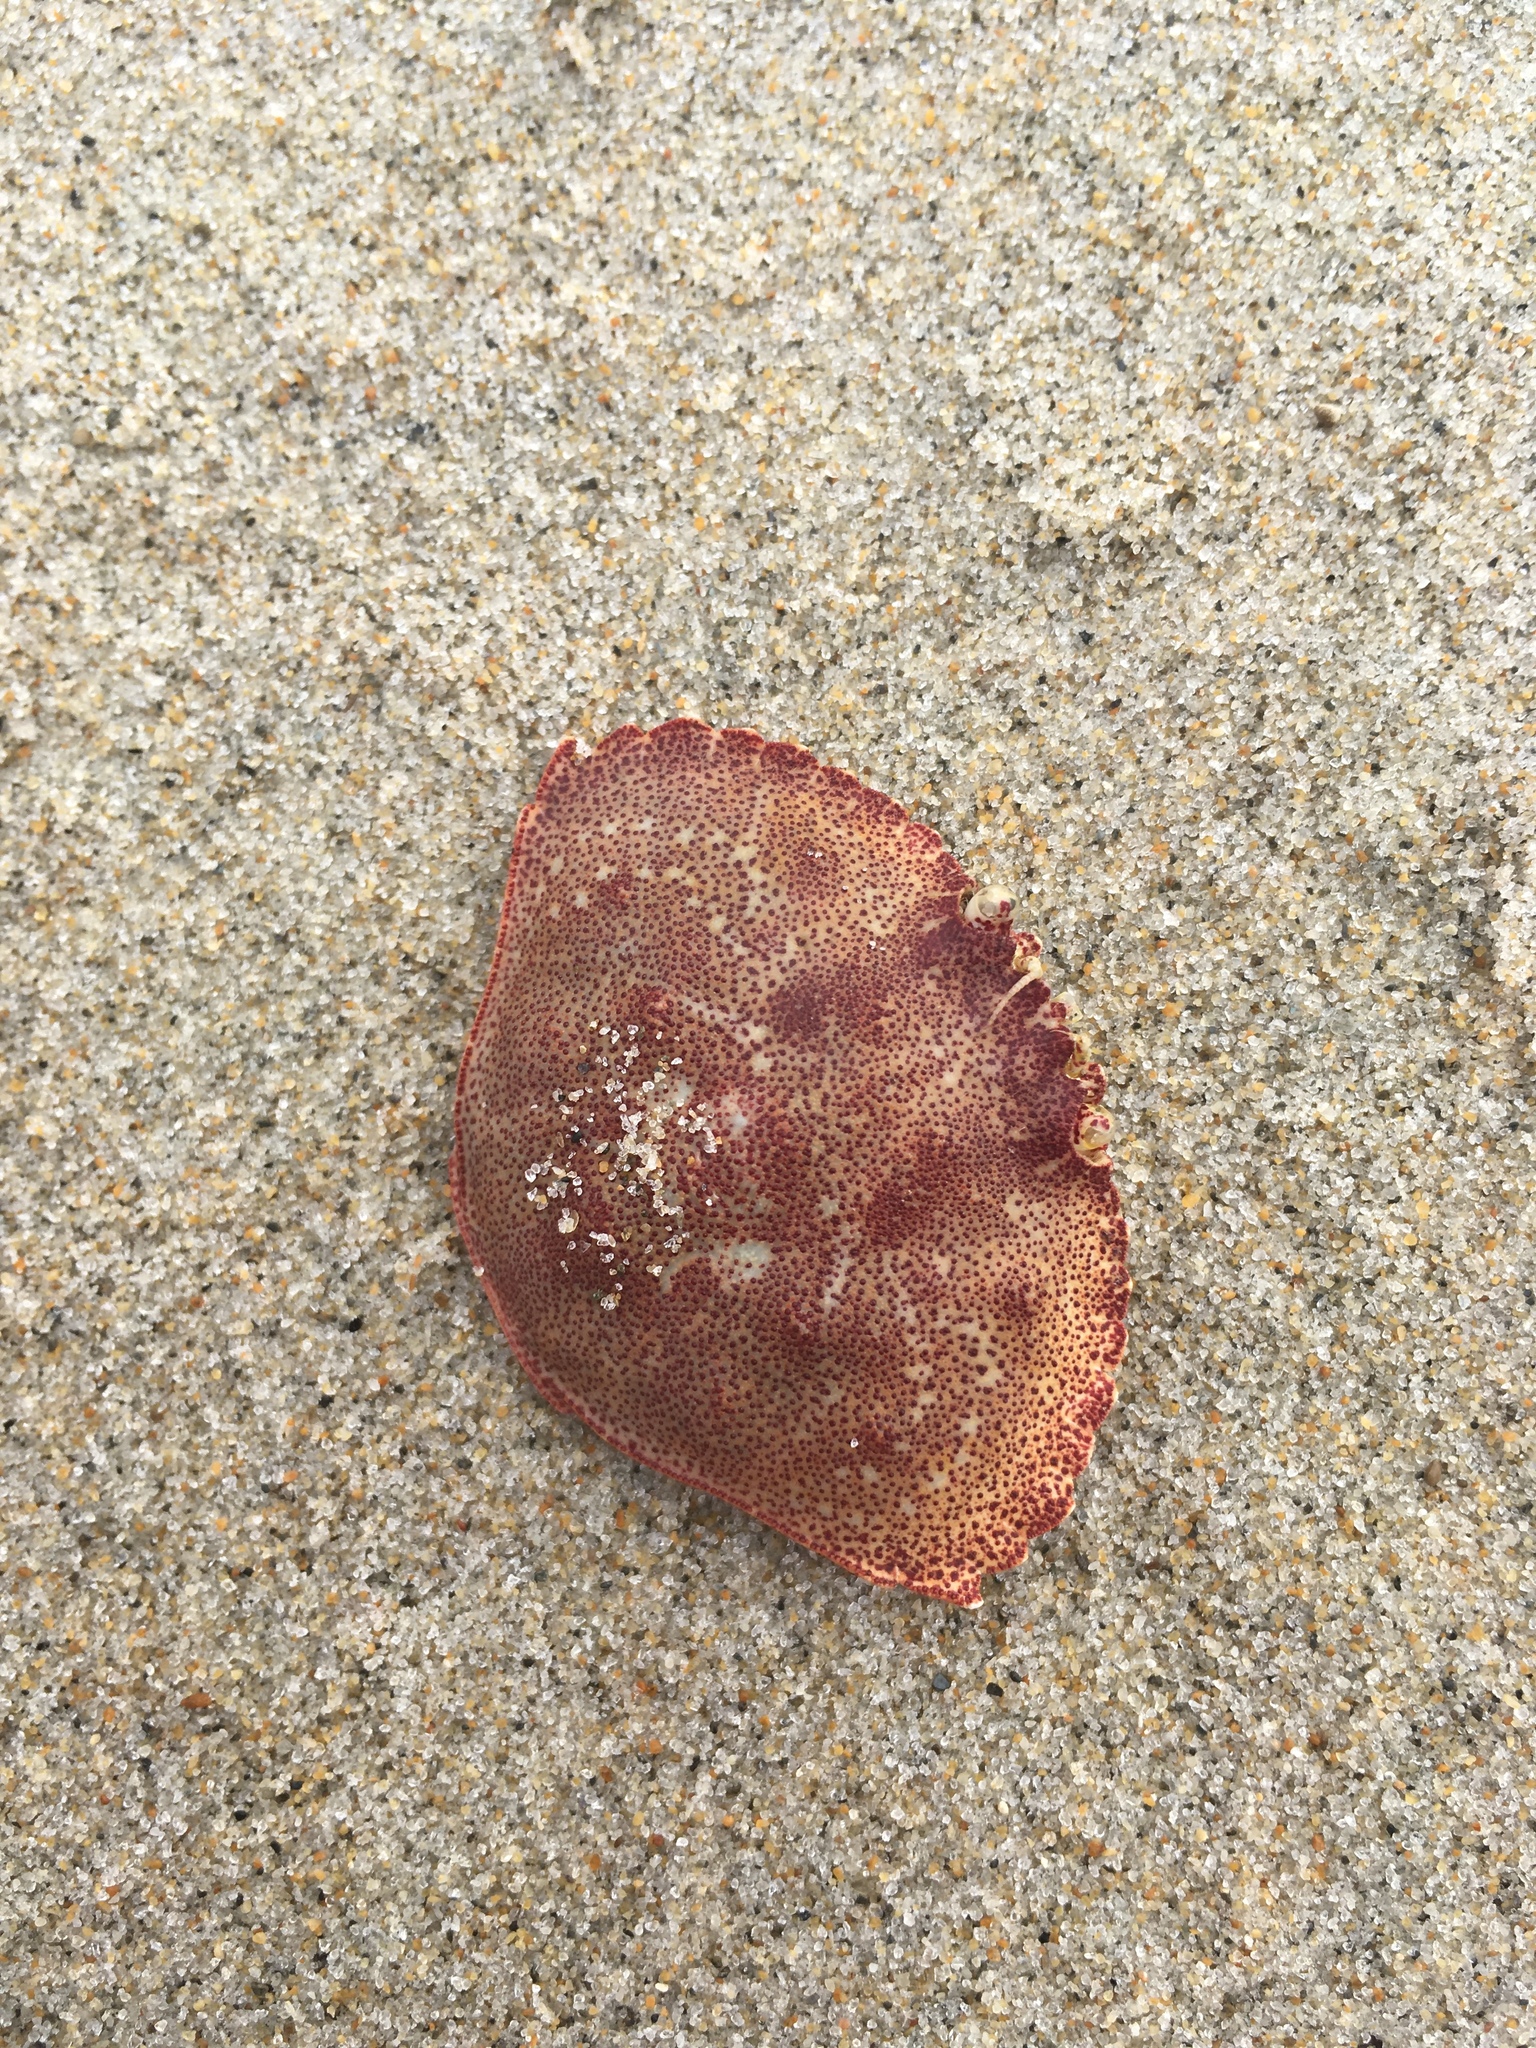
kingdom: Animalia
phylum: Arthropoda
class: Malacostraca
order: Decapoda
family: Cancridae
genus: Cancer
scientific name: Cancer irroratus
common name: Atlantic rock crab
